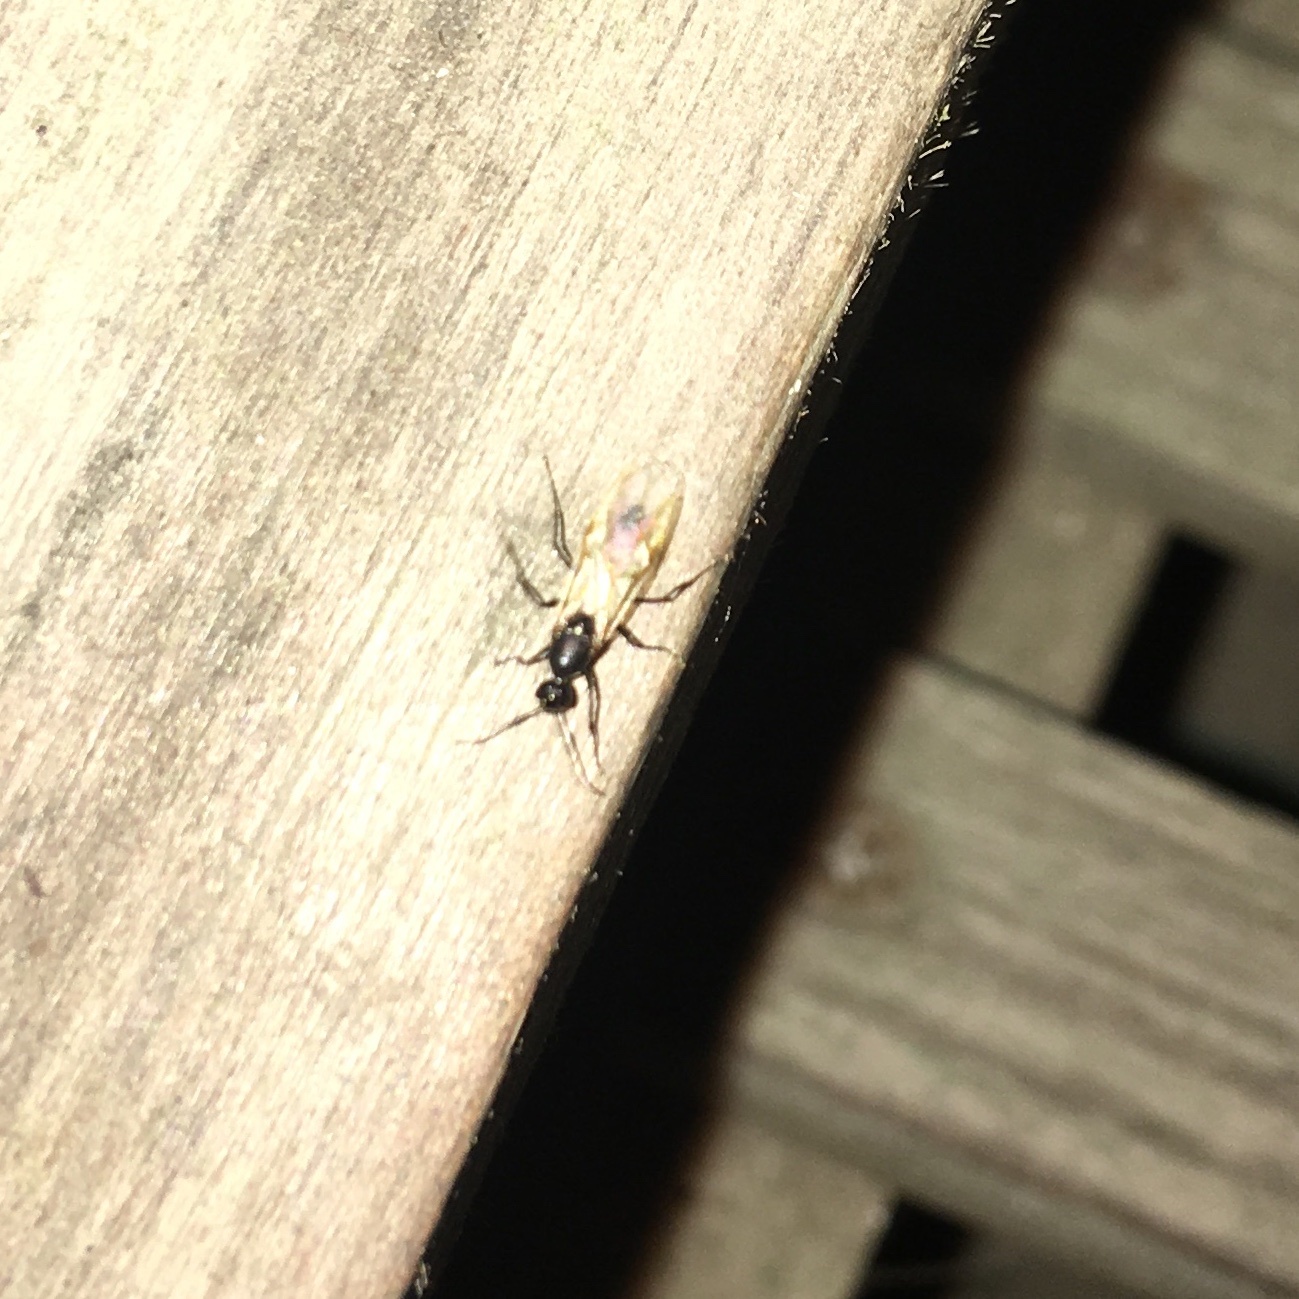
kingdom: Animalia
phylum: Arthropoda
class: Insecta
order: Hymenoptera
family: Formicidae
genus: Camponotus
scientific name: Camponotus pennsylvanicus
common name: Black carpenter ant
